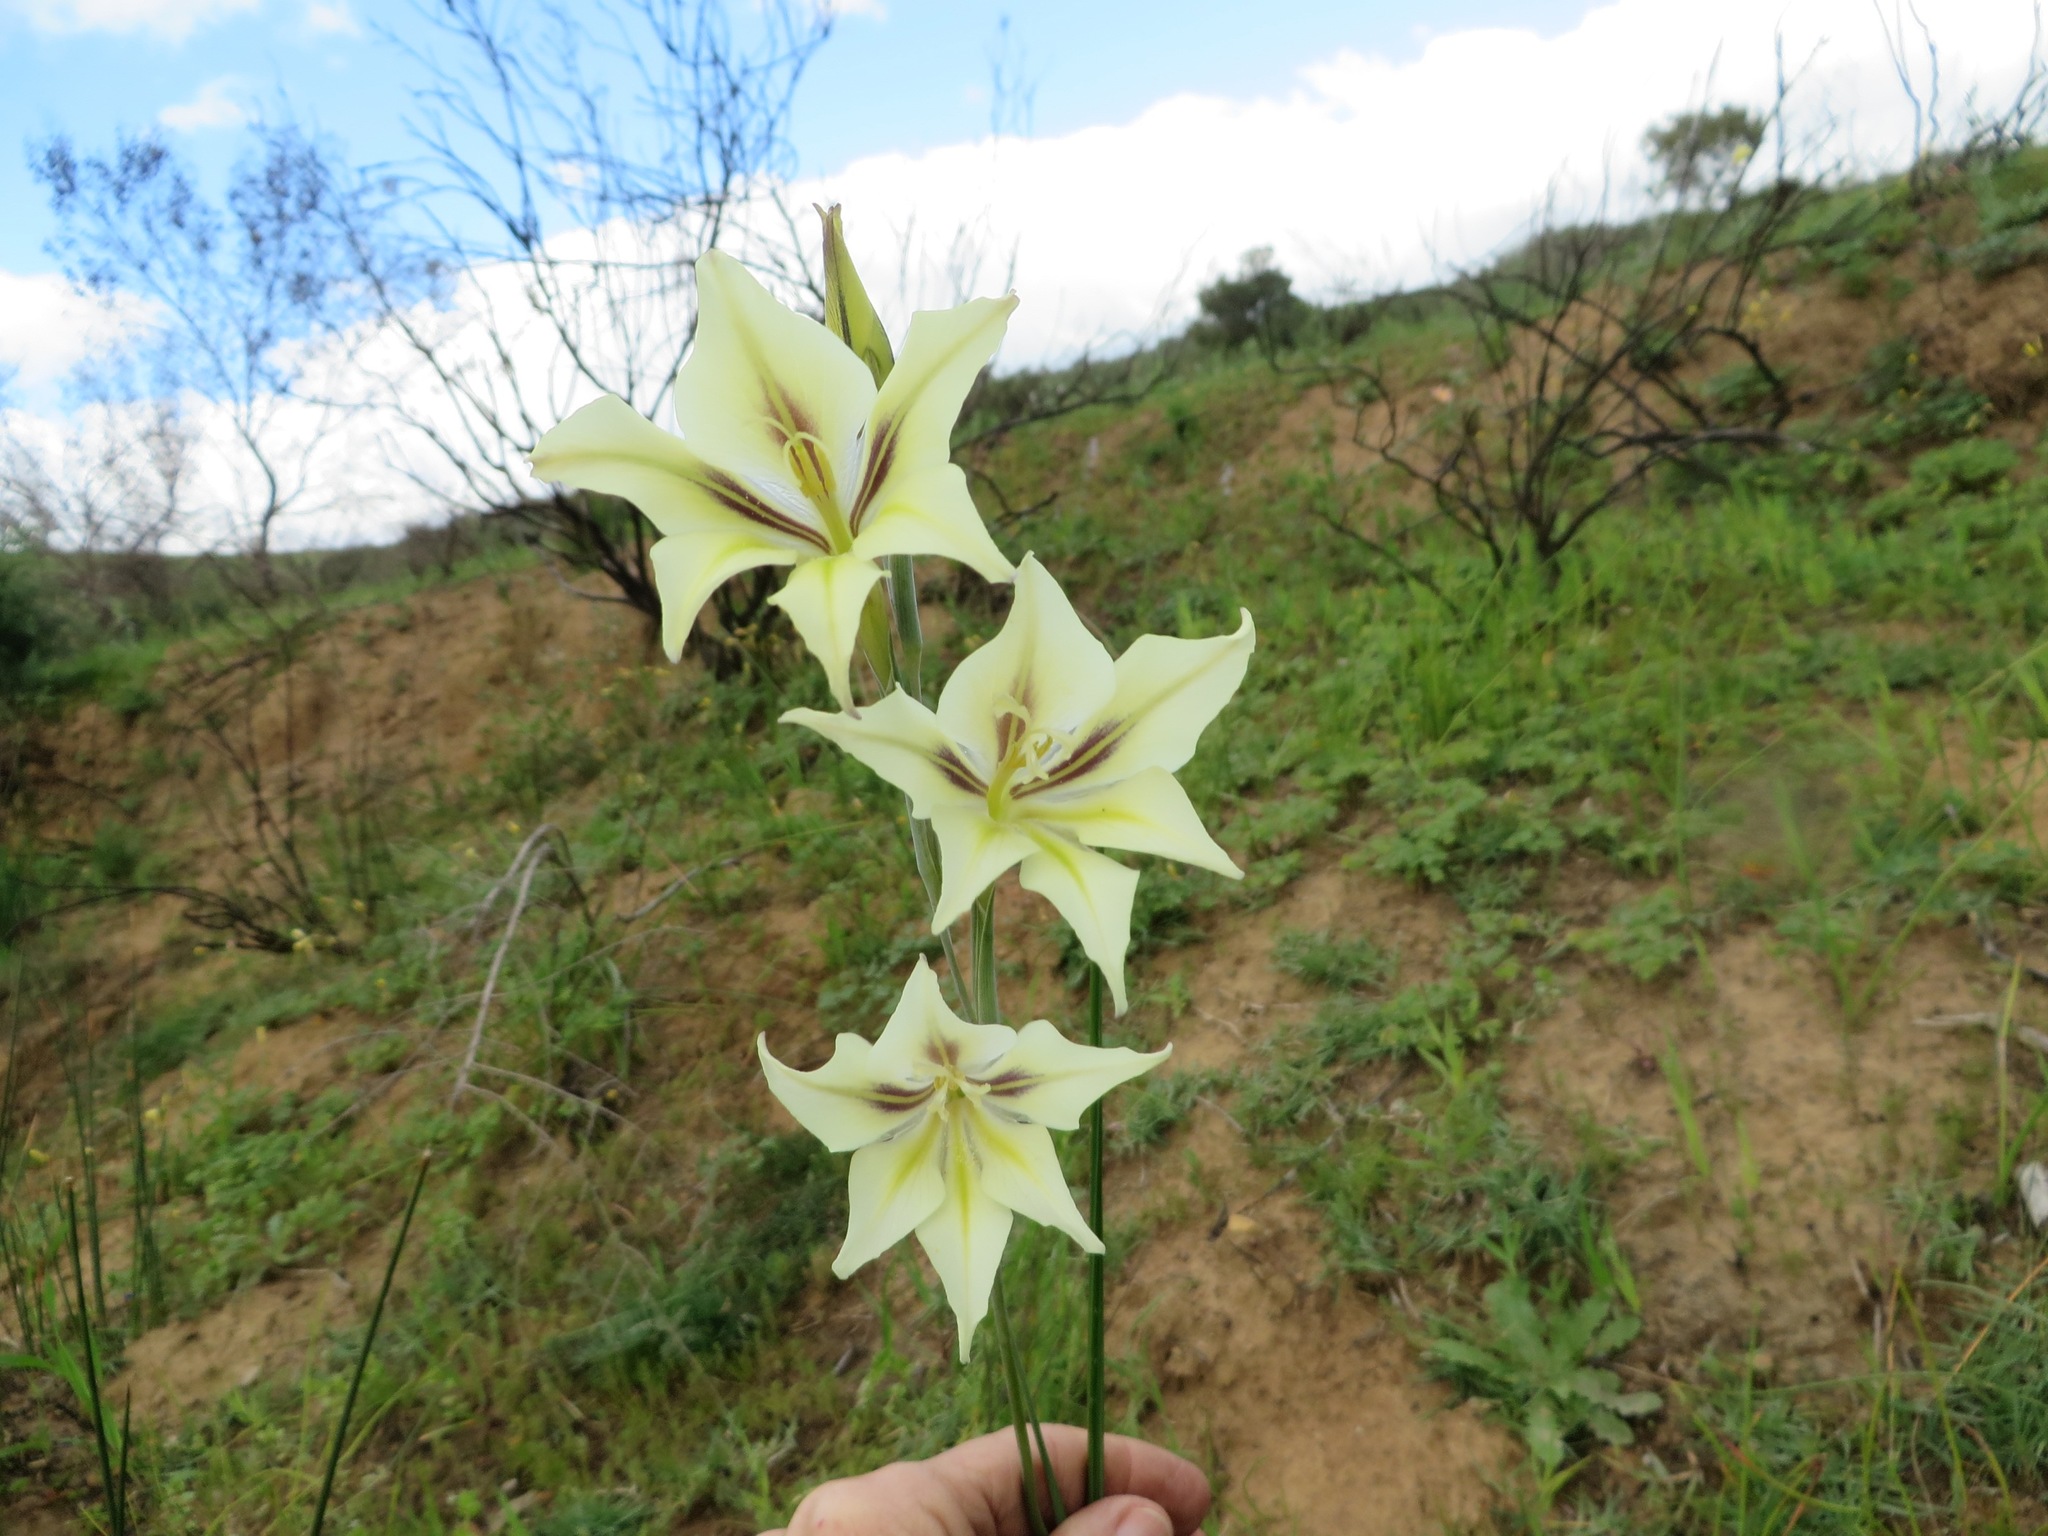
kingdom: Plantae
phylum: Tracheophyta
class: Liliopsida
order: Asparagales
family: Iridaceae
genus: Gladiolus
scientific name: Gladiolus tristis
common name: Ever-flowering gladiolus
